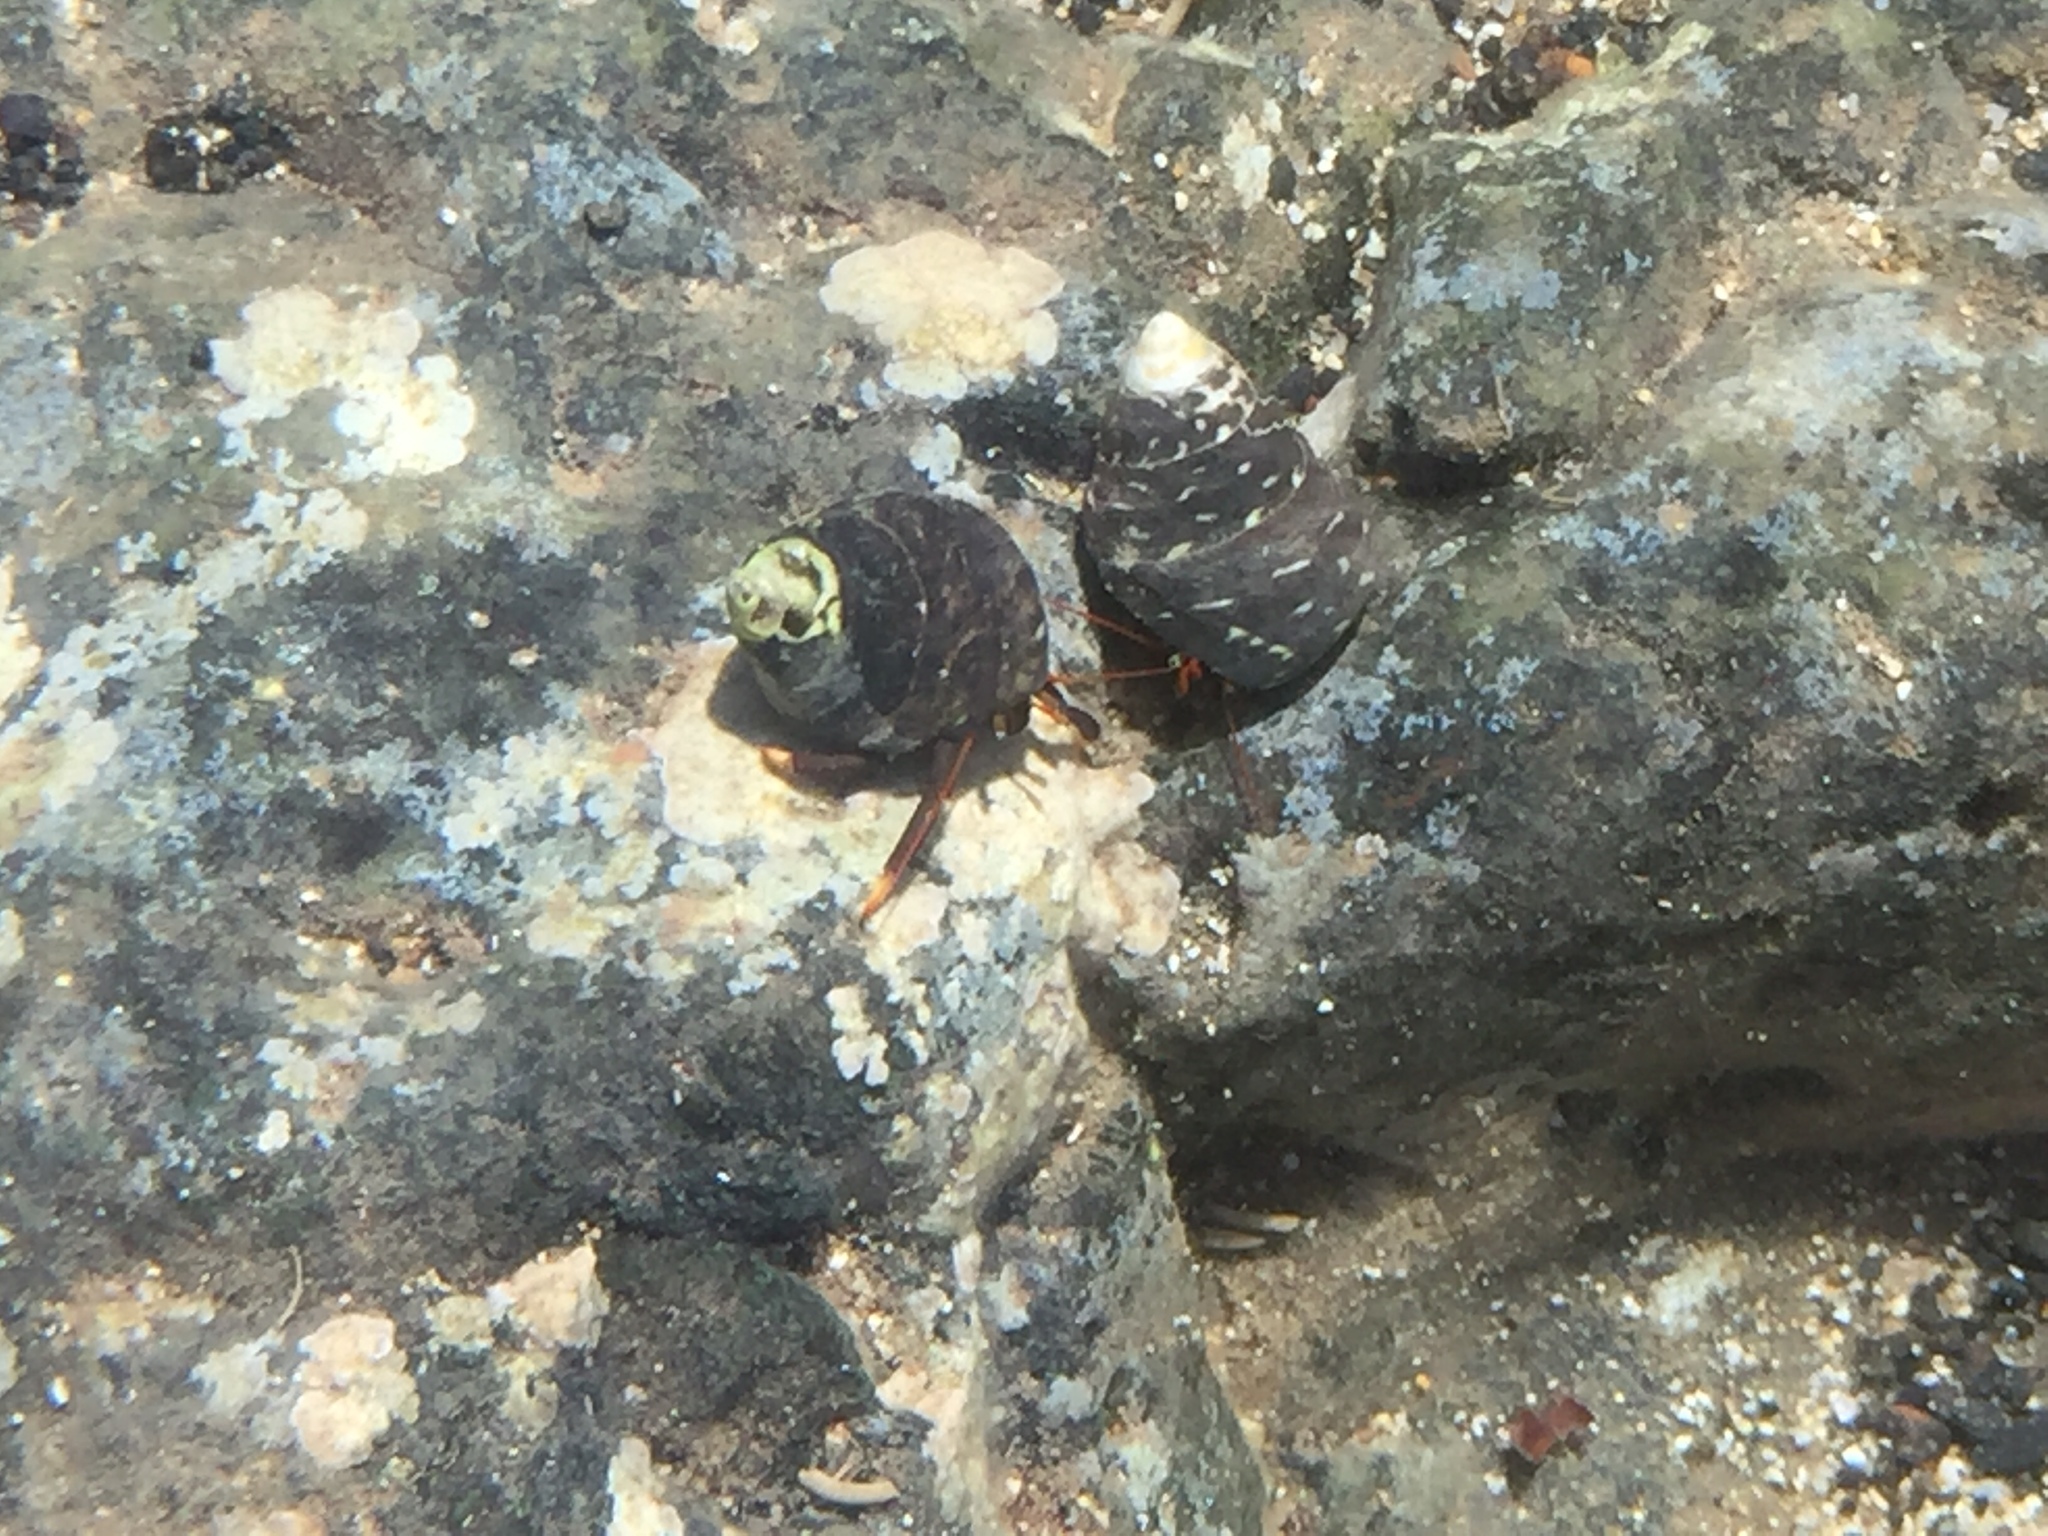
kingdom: Animalia
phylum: Arthropoda
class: Malacostraca
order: Decapoda
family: Diogenidae
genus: Clibanarius
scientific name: Clibanarius aequabilis
